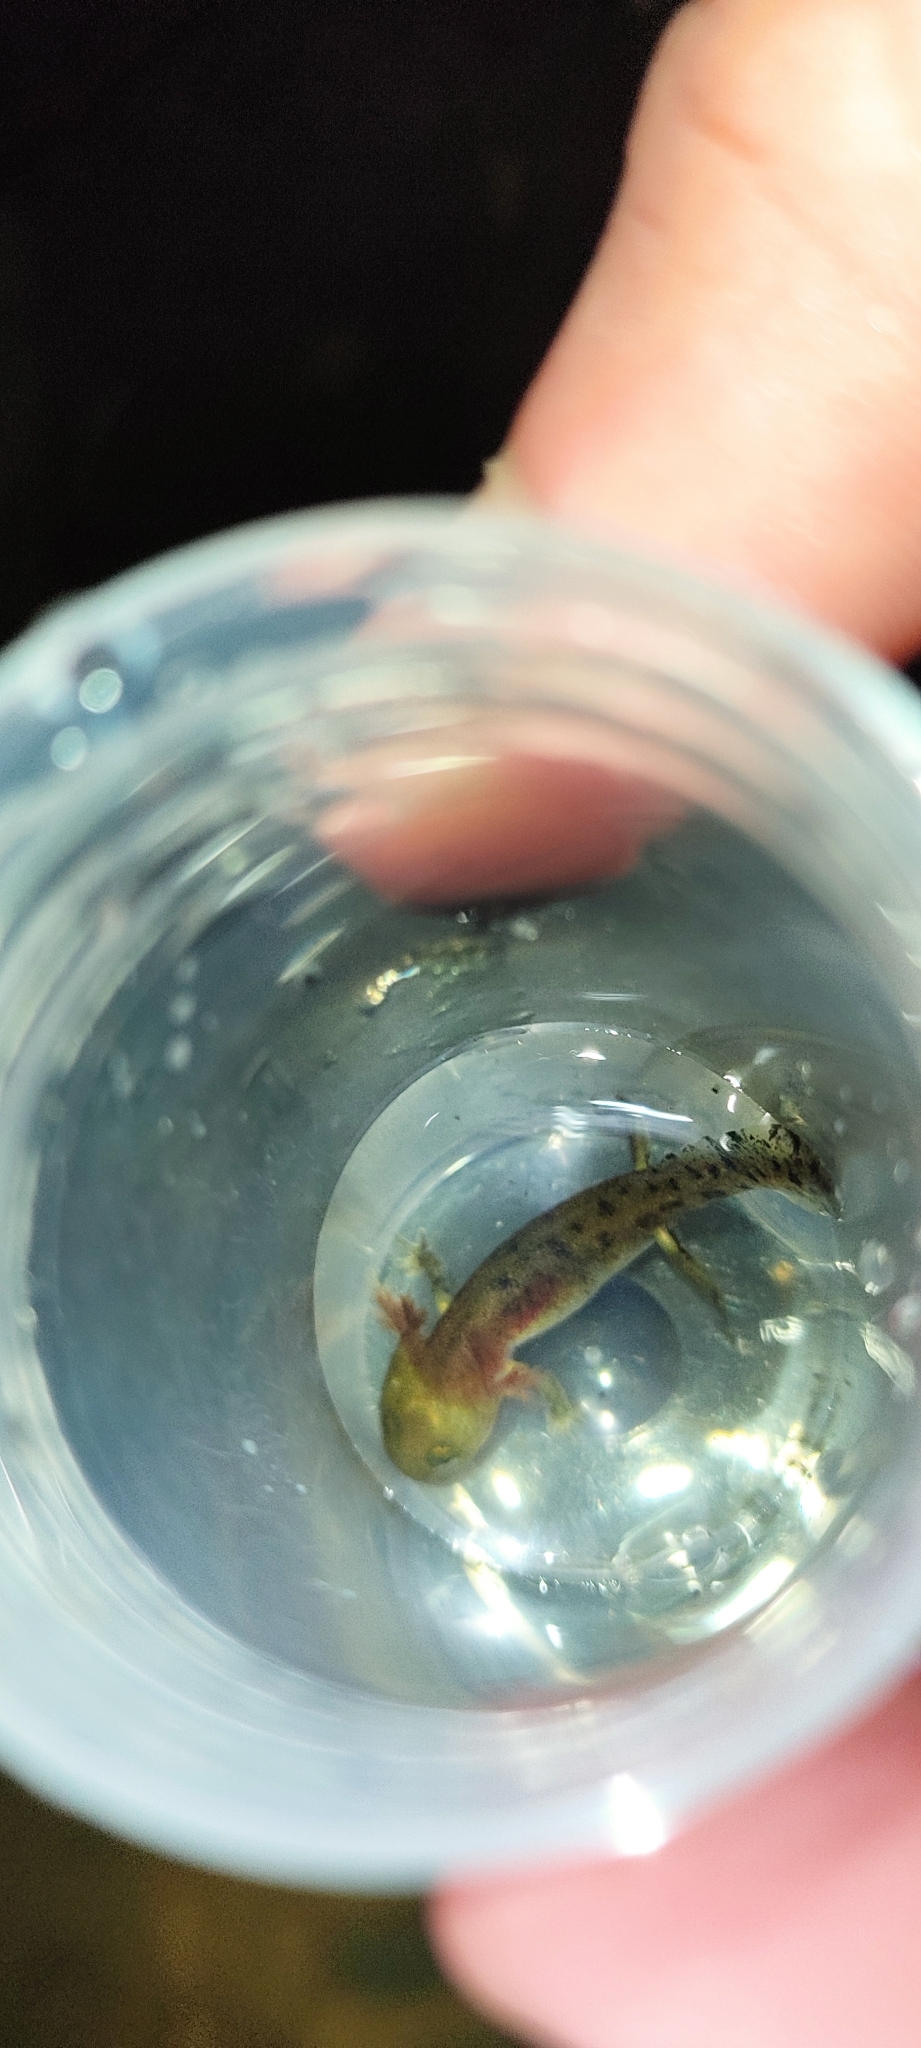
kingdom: Animalia
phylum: Chordata
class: Amphibia
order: Caudata
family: Salamandridae
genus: Salamandra
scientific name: Salamandra salamandra
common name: Fire salamander
